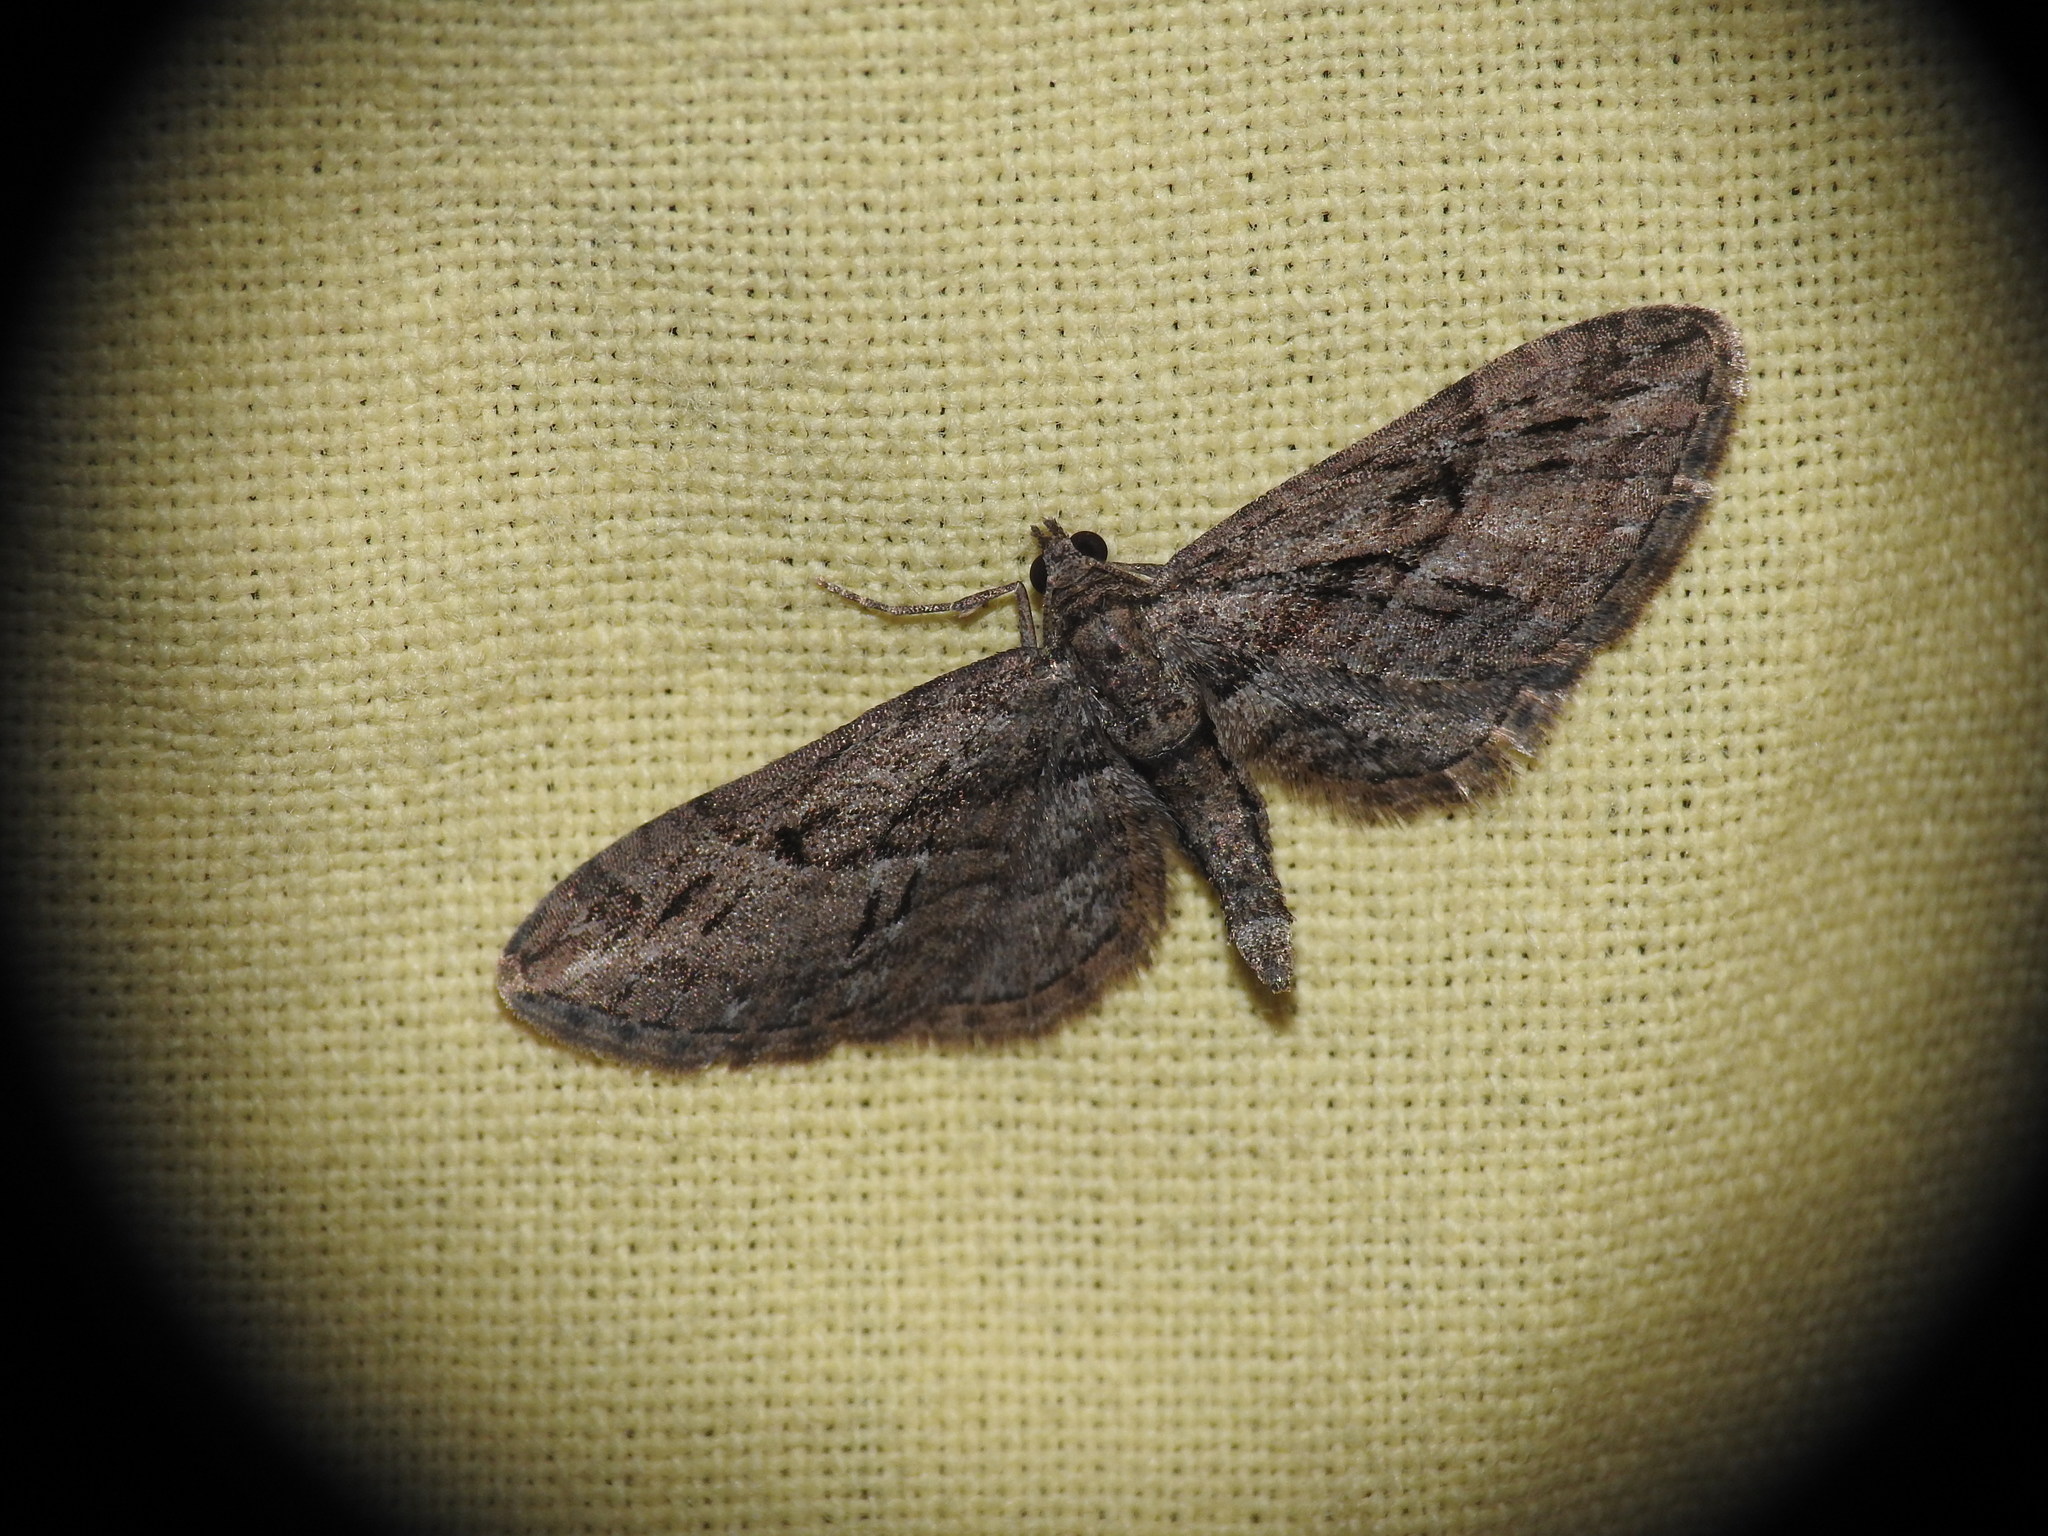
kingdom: Animalia
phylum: Arthropoda
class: Insecta
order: Lepidoptera
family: Geometridae
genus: Eupithecia
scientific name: Eupithecia oxycedrata
